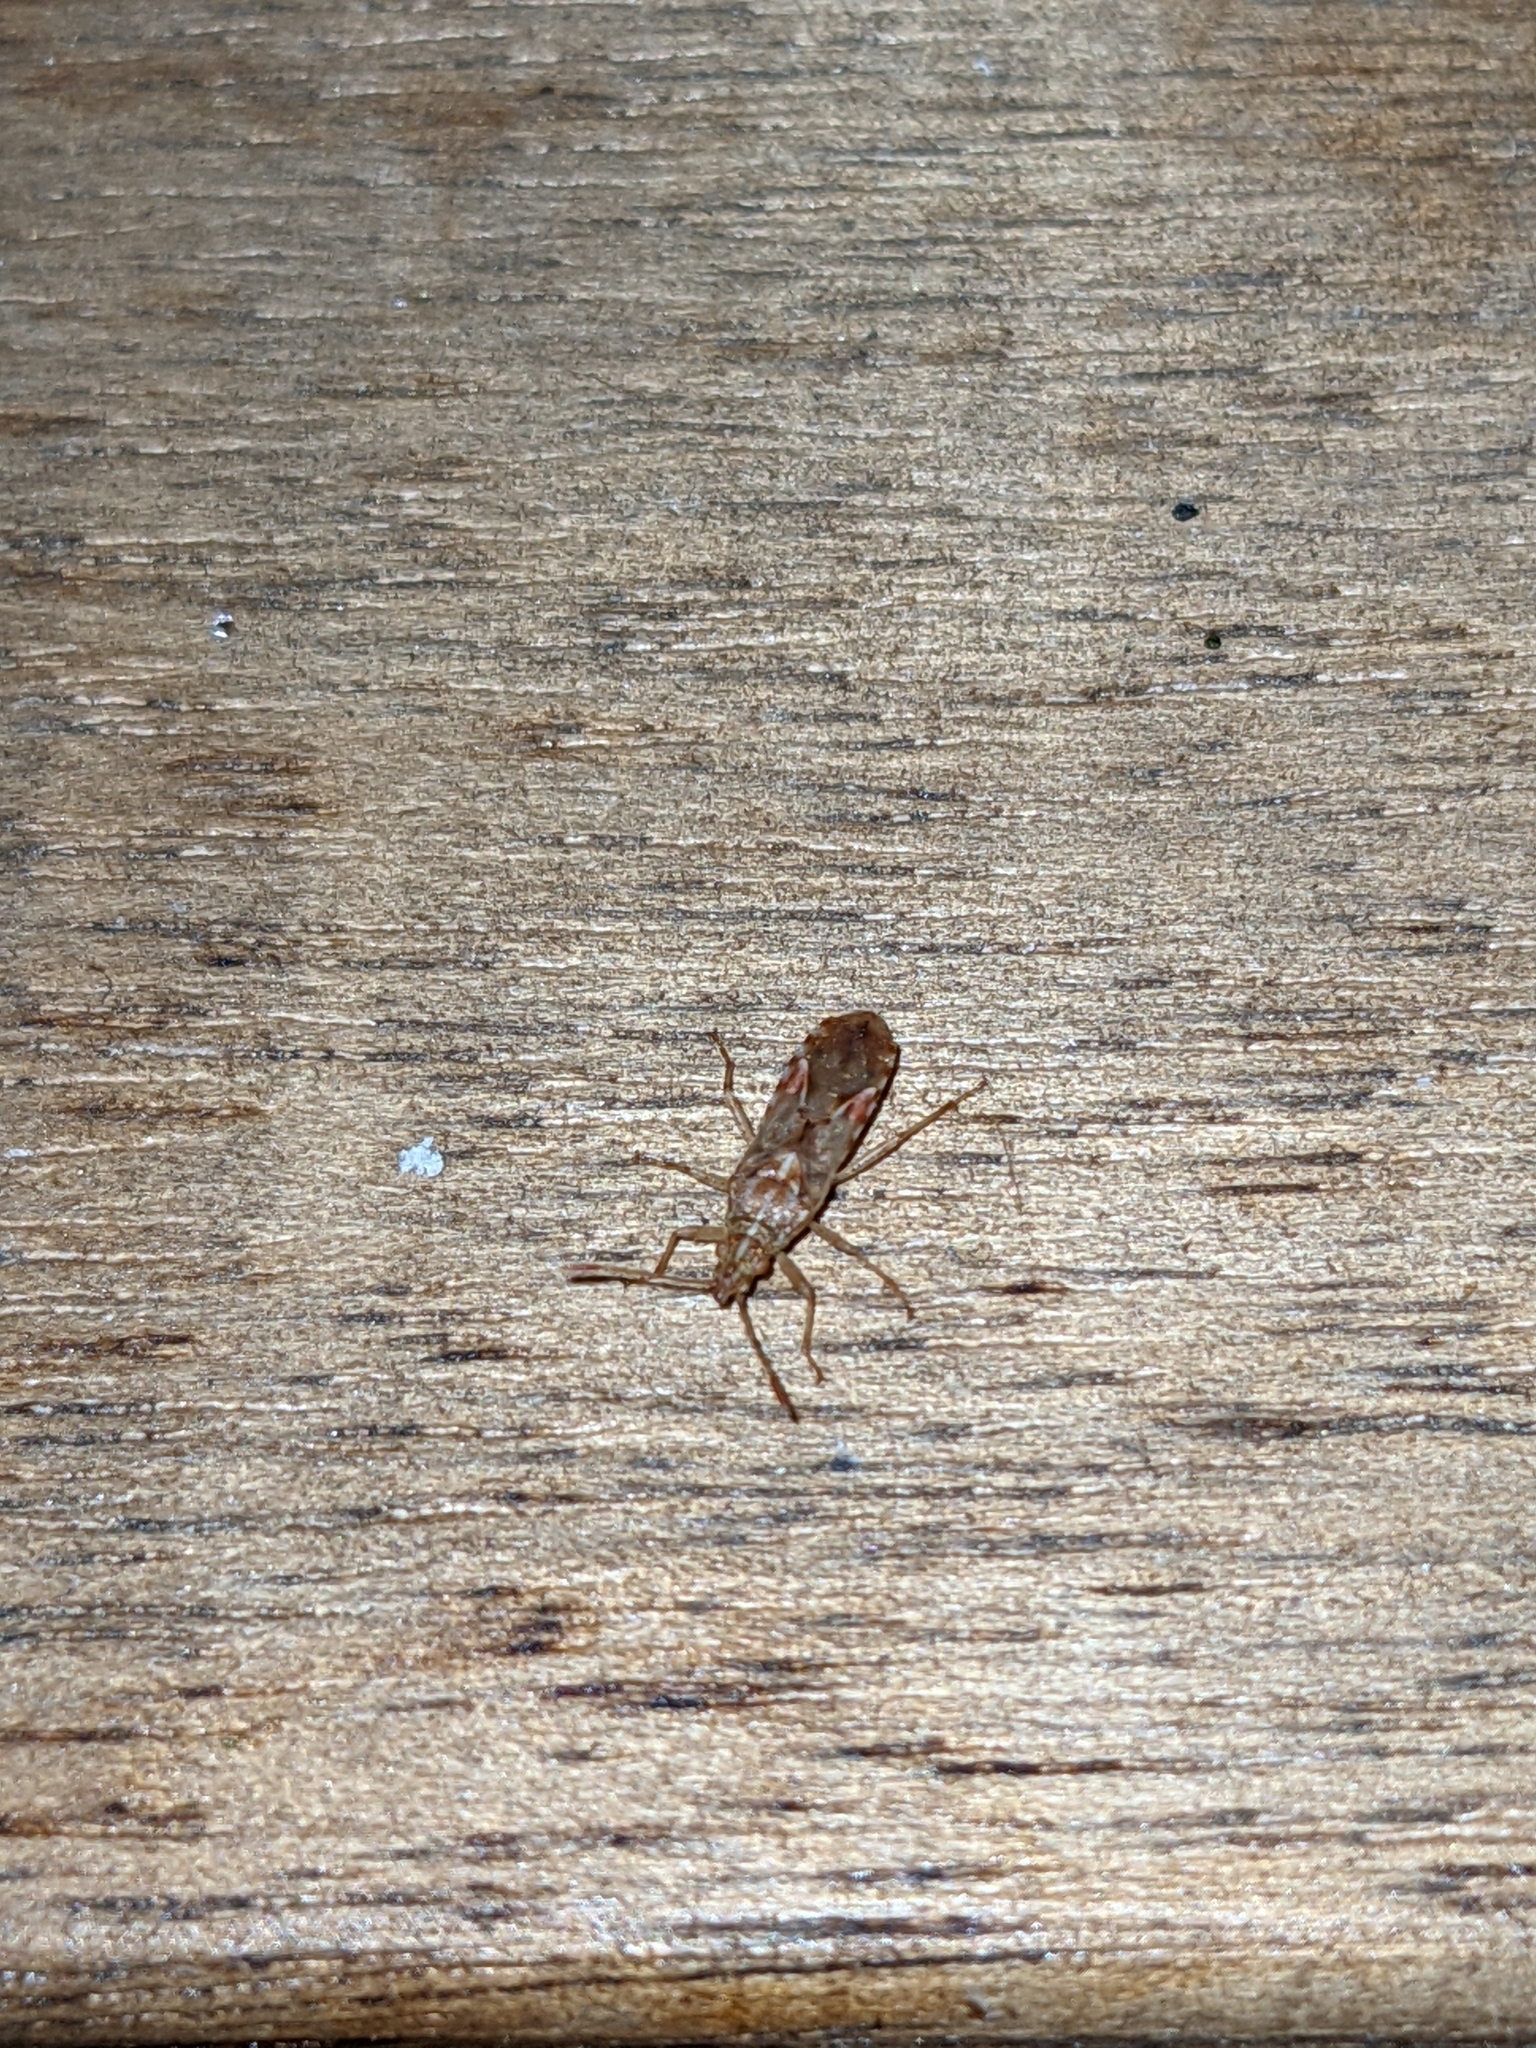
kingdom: Animalia
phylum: Arthropoda
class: Insecta
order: Hemiptera
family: Lygaeidae
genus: Belonochilus
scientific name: Belonochilus numenius
